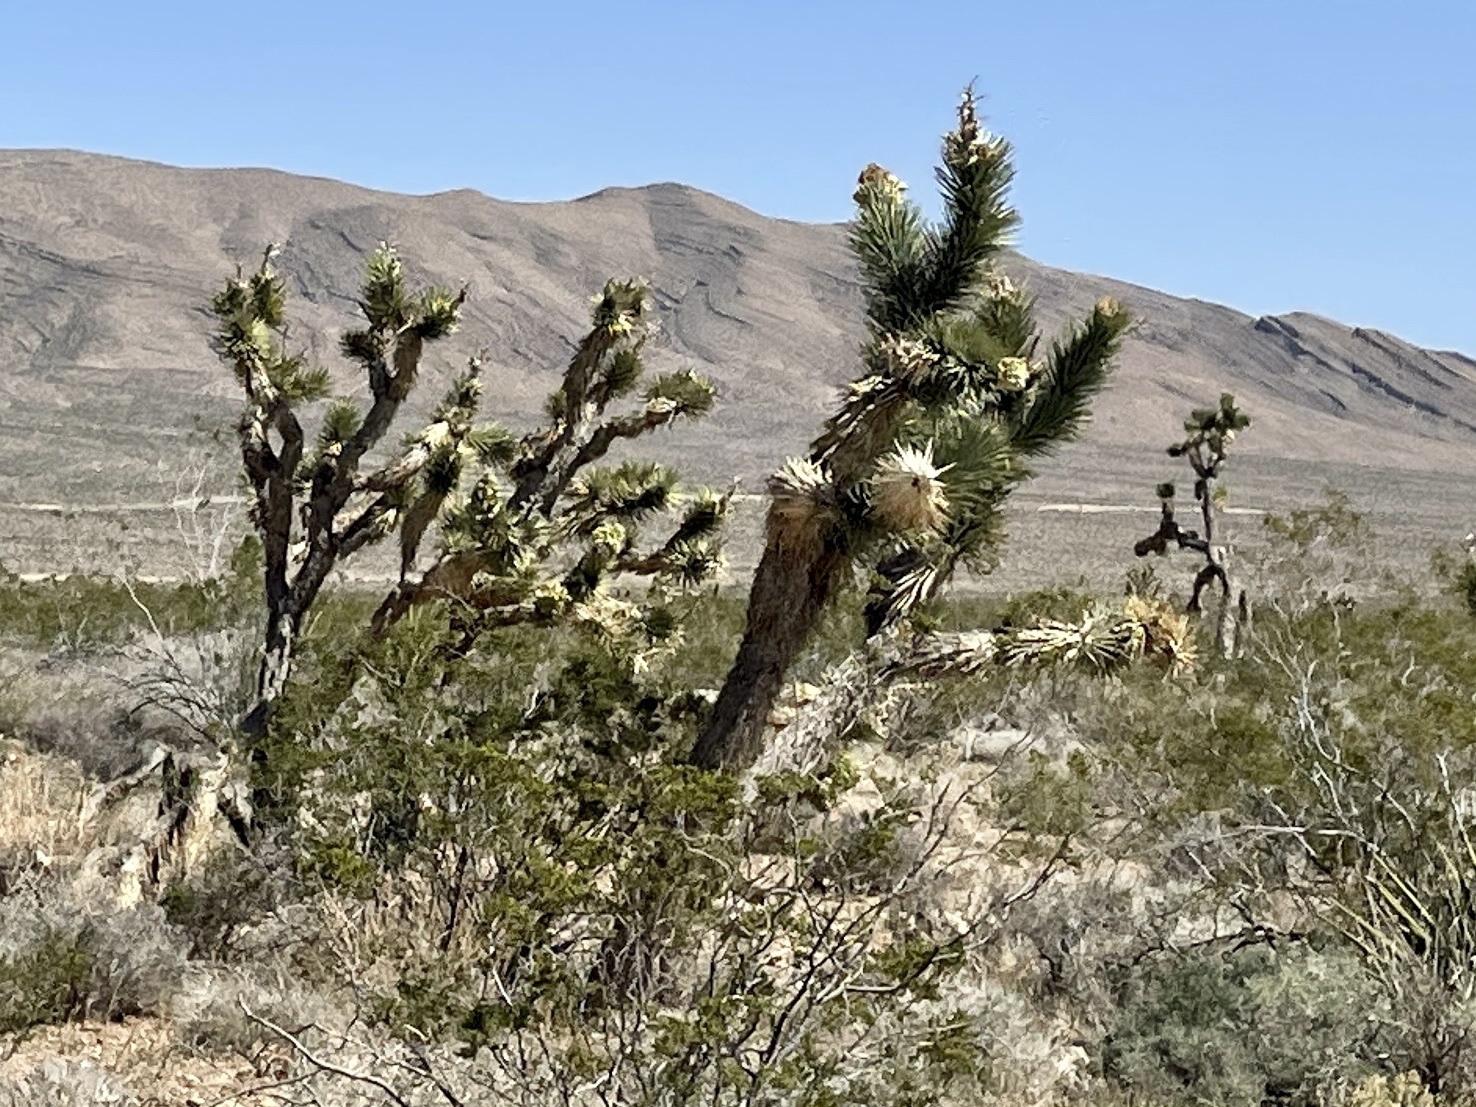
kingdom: Plantae
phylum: Tracheophyta
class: Liliopsida
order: Asparagales
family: Asparagaceae
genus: Yucca
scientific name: Yucca brevifolia
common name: Joshua tree
